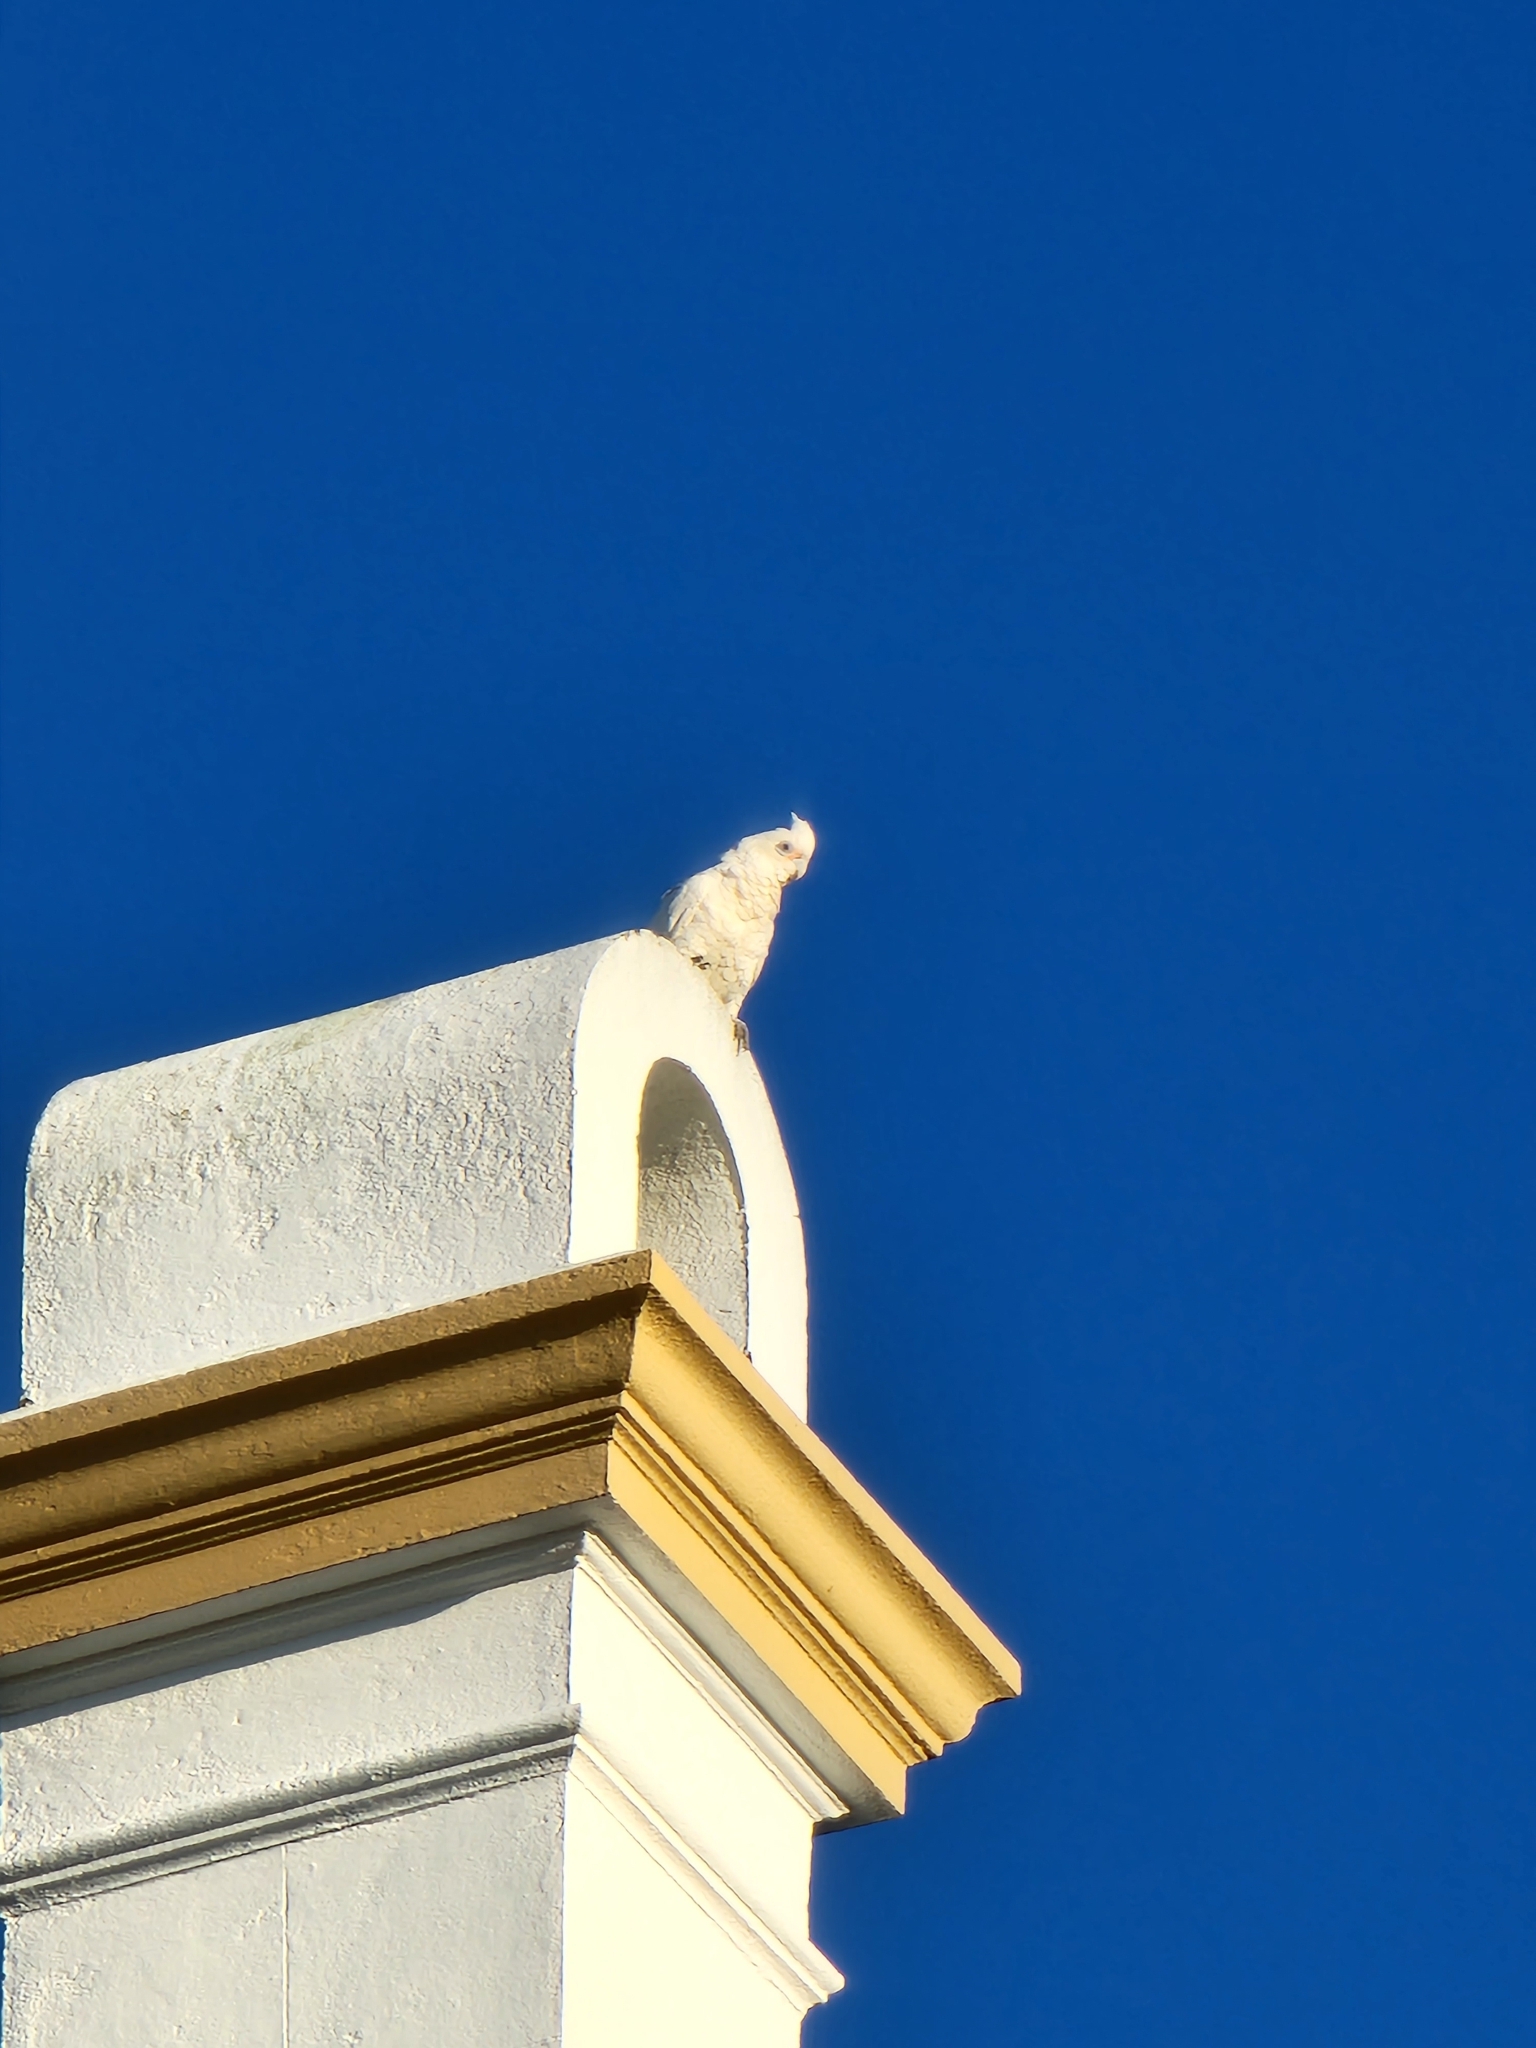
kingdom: Animalia
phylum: Chordata
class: Aves
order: Psittaciformes
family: Psittacidae
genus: Cacatua
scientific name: Cacatua sanguinea
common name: Little corella
